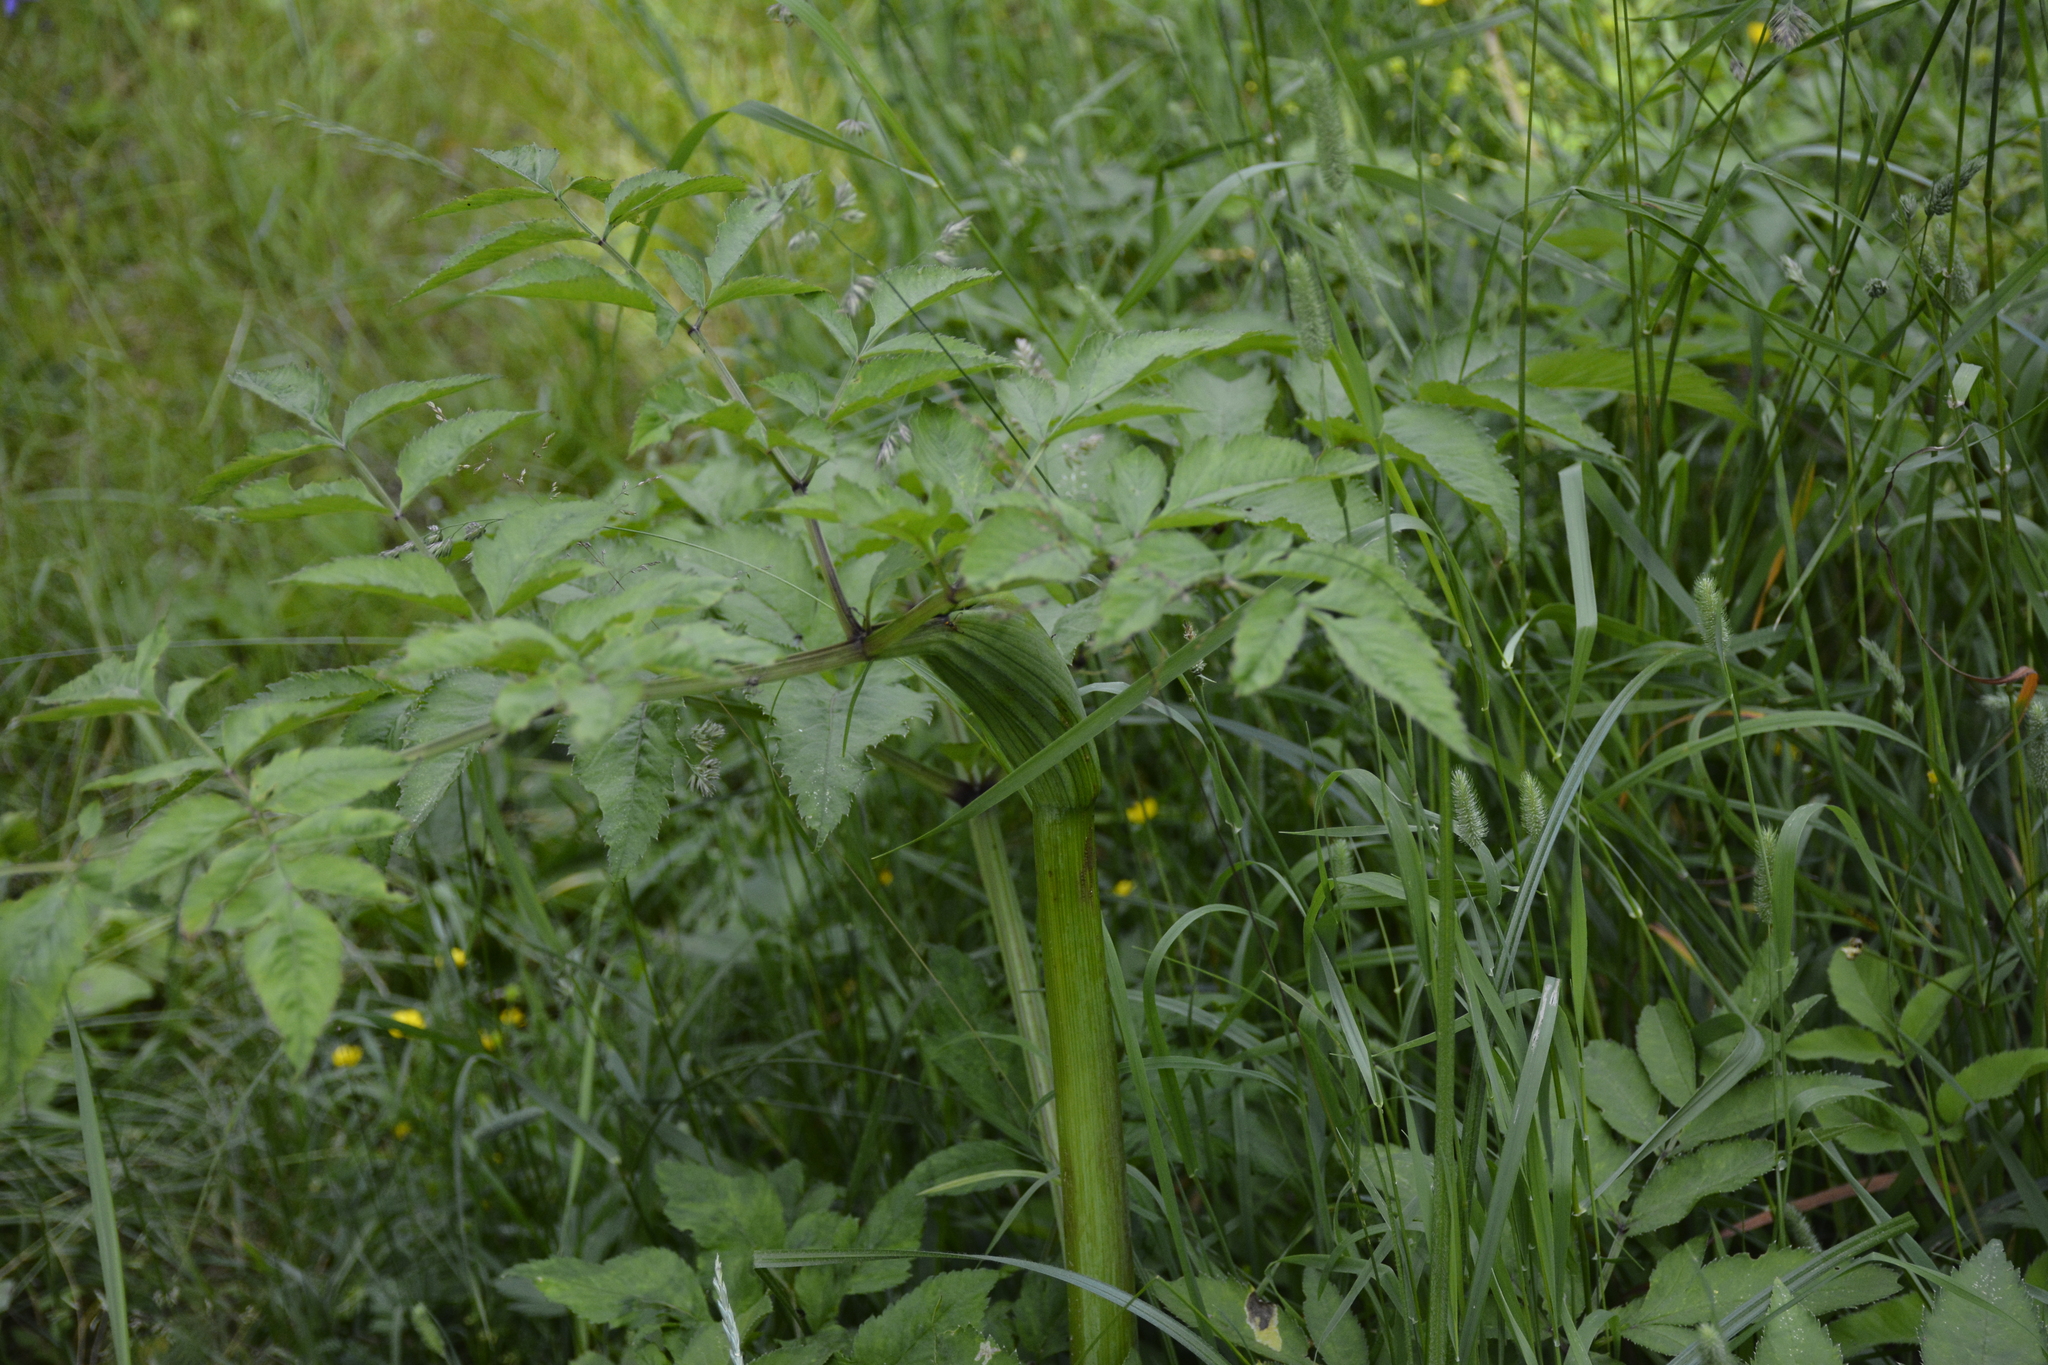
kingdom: Plantae
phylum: Tracheophyta
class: Magnoliopsida
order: Apiales
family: Apiaceae
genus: Angelica
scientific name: Angelica sylvestris
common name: Wild angelica
